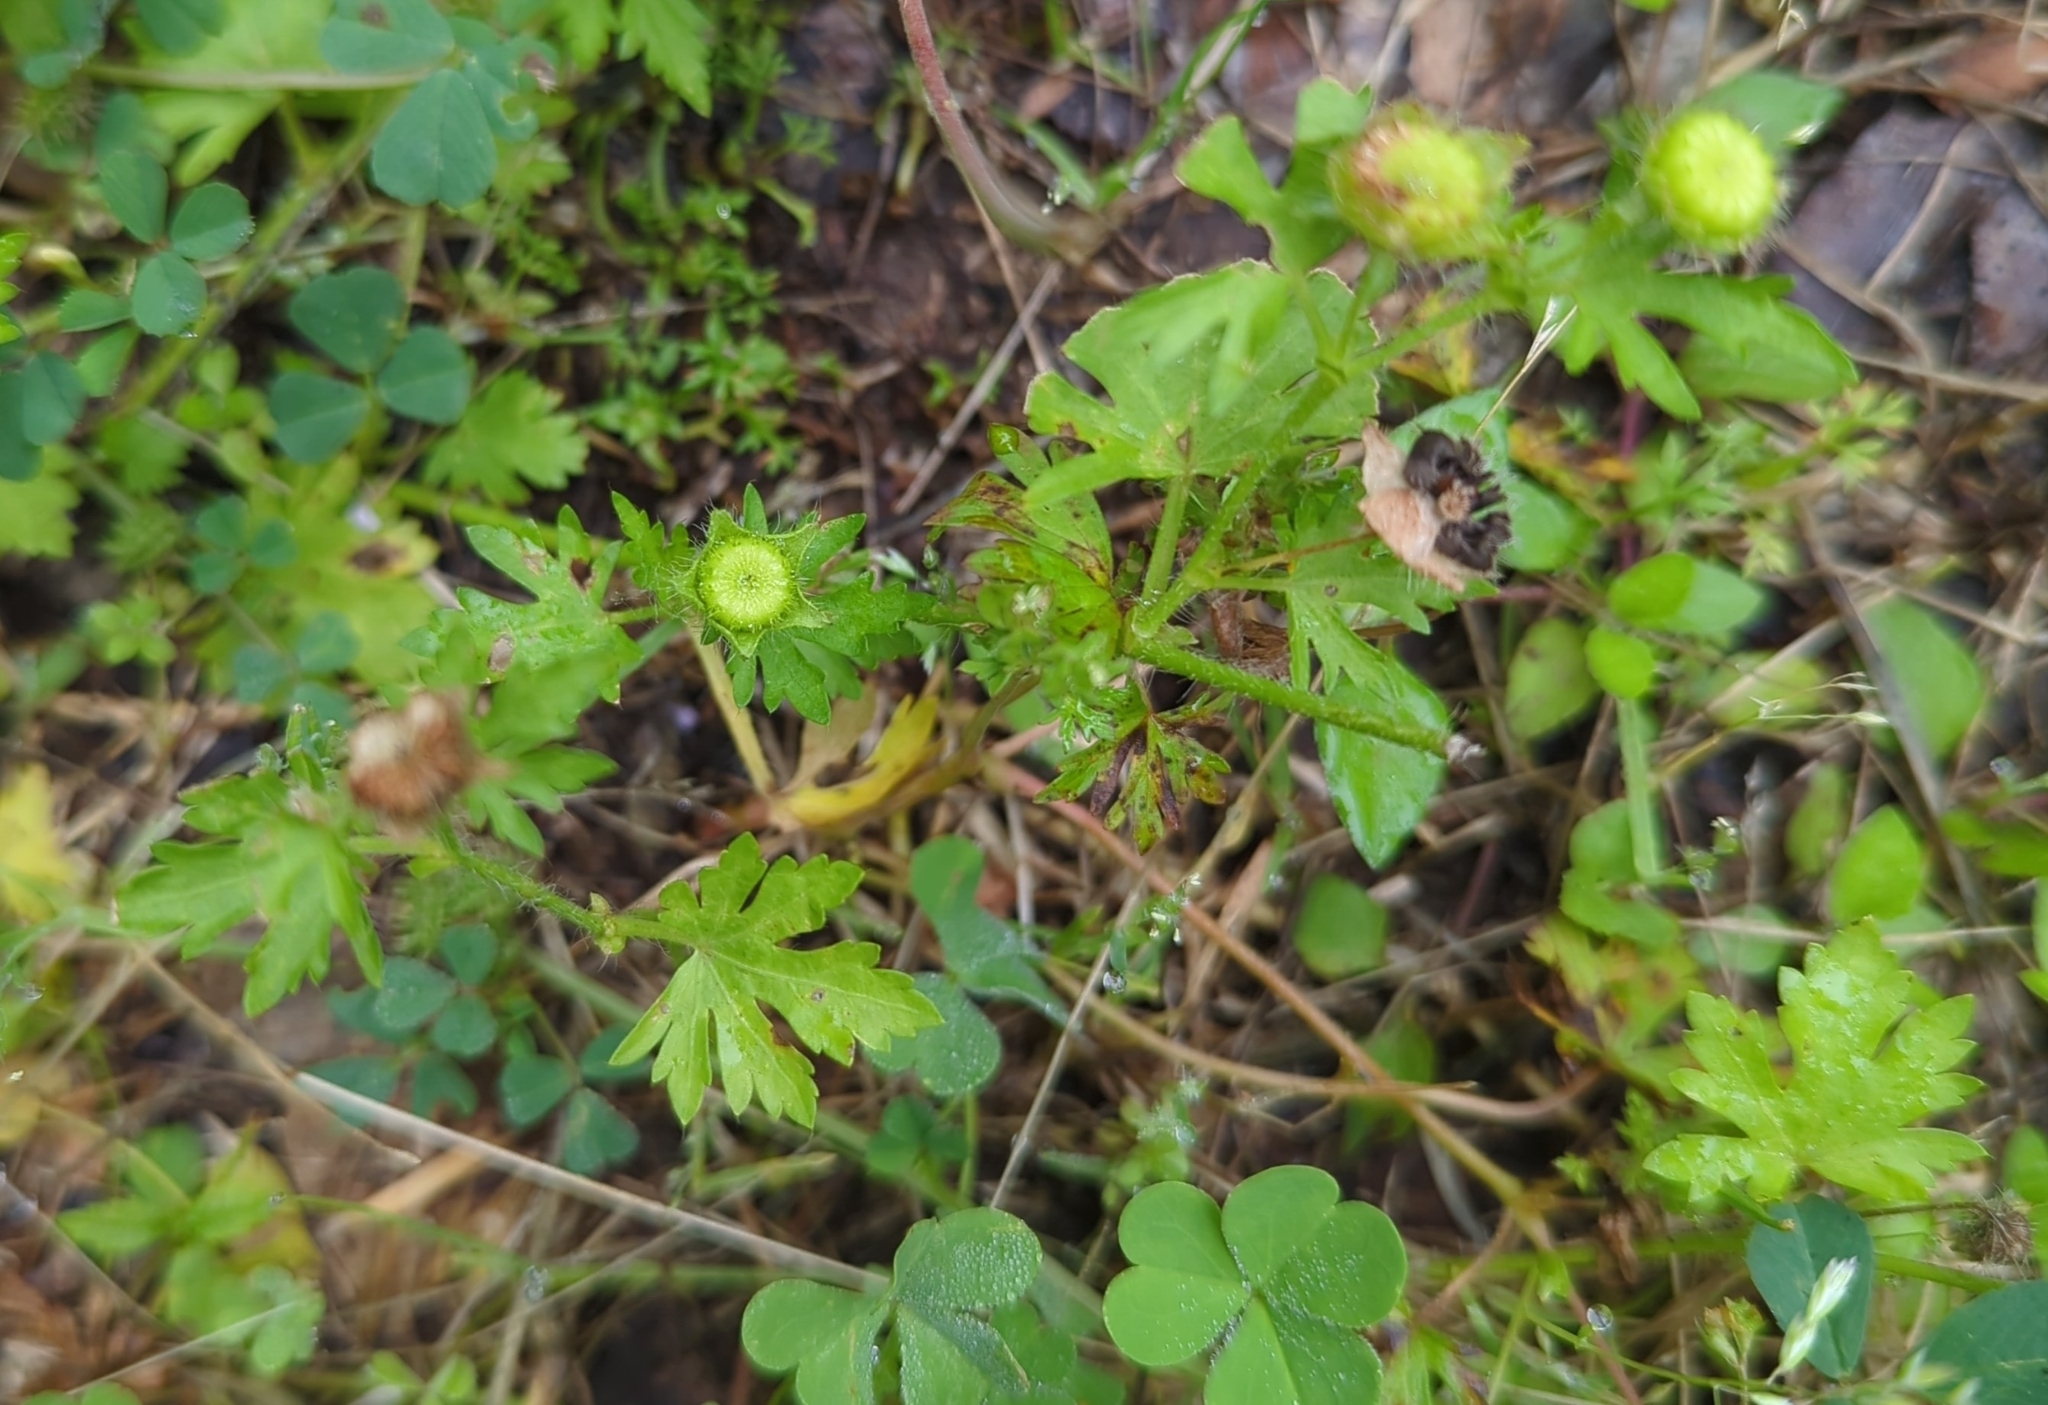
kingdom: Plantae
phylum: Tracheophyta
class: Magnoliopsida
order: Malvales
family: Malvaceae
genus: Modiola
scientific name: Modiola caroliniana
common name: Carolina bristlemallow
